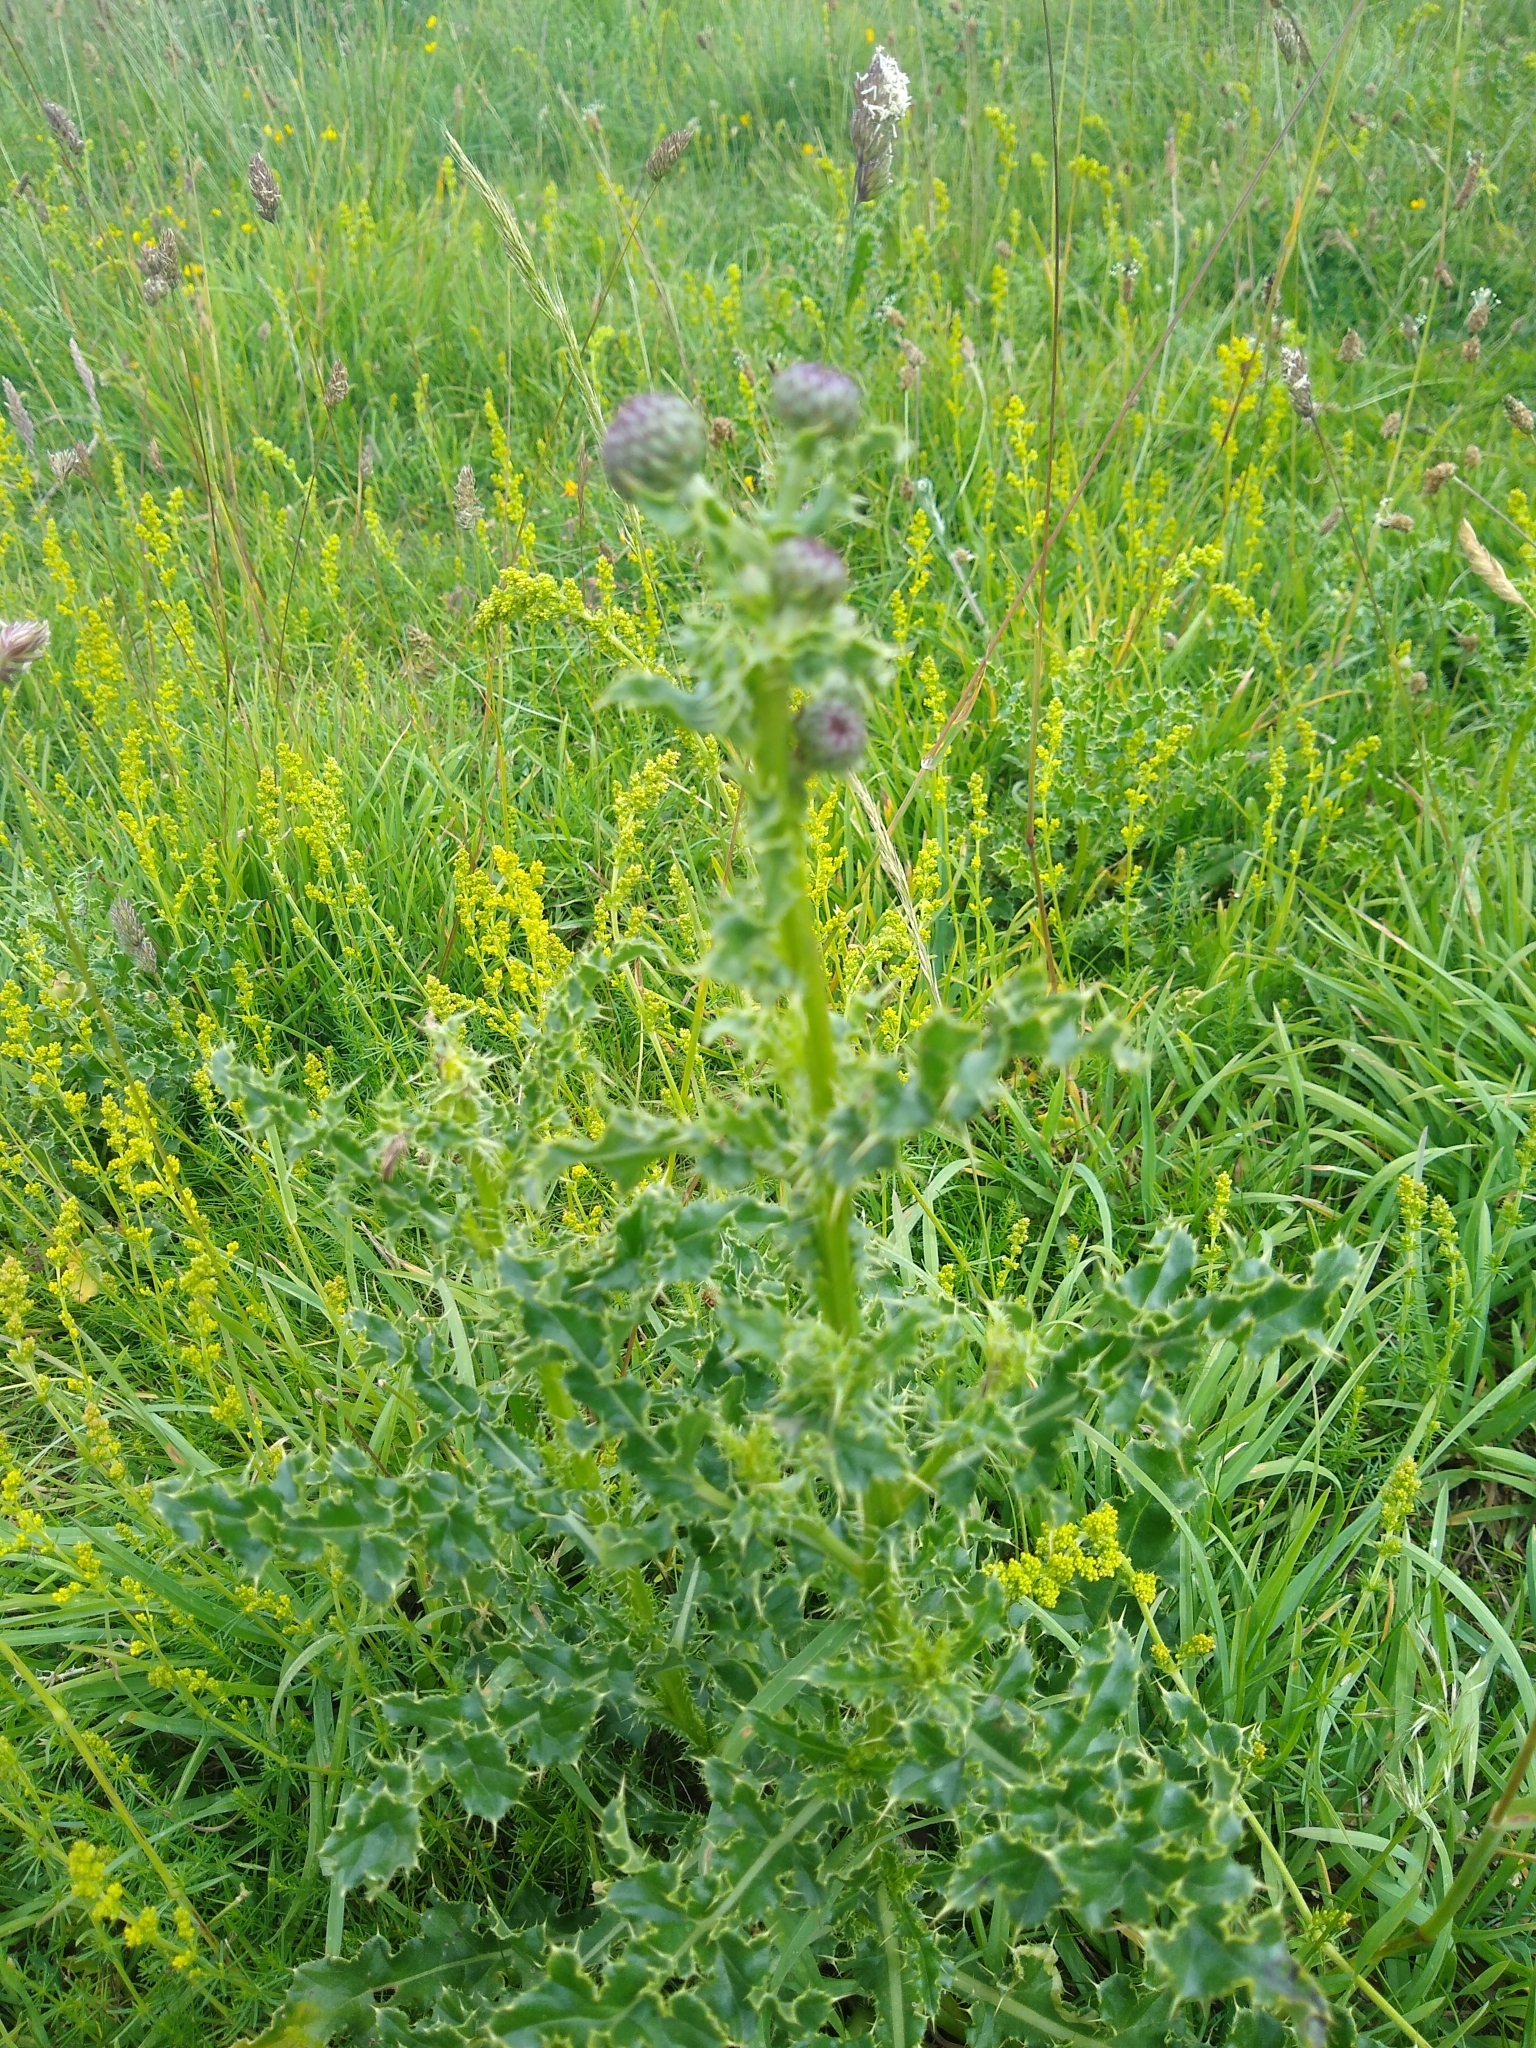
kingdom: Plantae
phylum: Tracheophyta
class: Magnoliopsida
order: Asterales
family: Asteraceae
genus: Cirsium
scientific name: Cirsium arvense
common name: Creeping thistle
